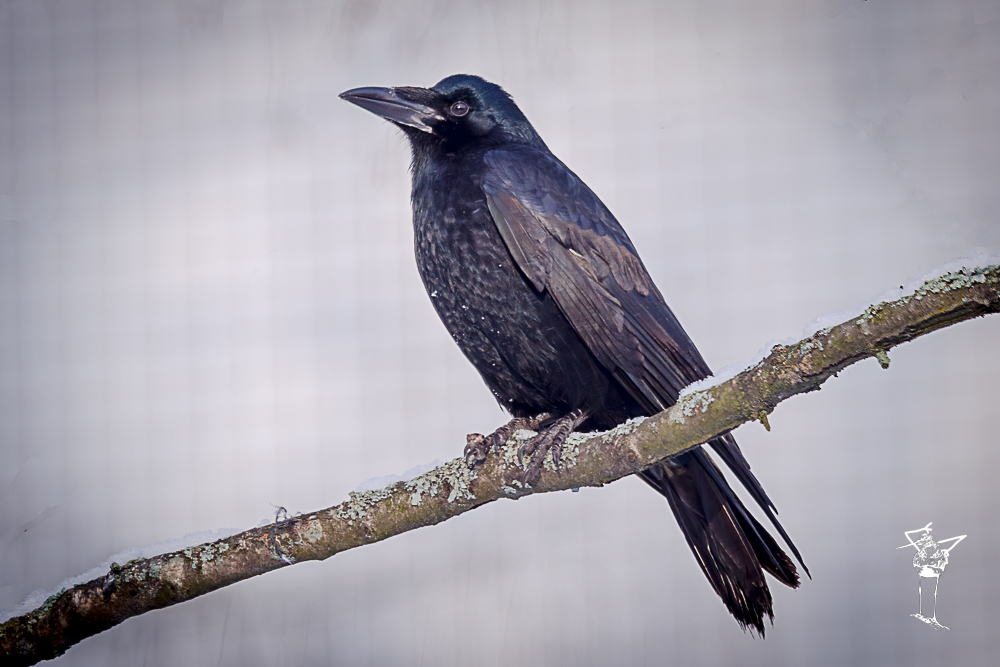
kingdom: Animalia
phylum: Chordata
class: Aves
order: Passeriformes
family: Corvidae
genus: Corvus
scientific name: Corvus frugilegus
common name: Rook
